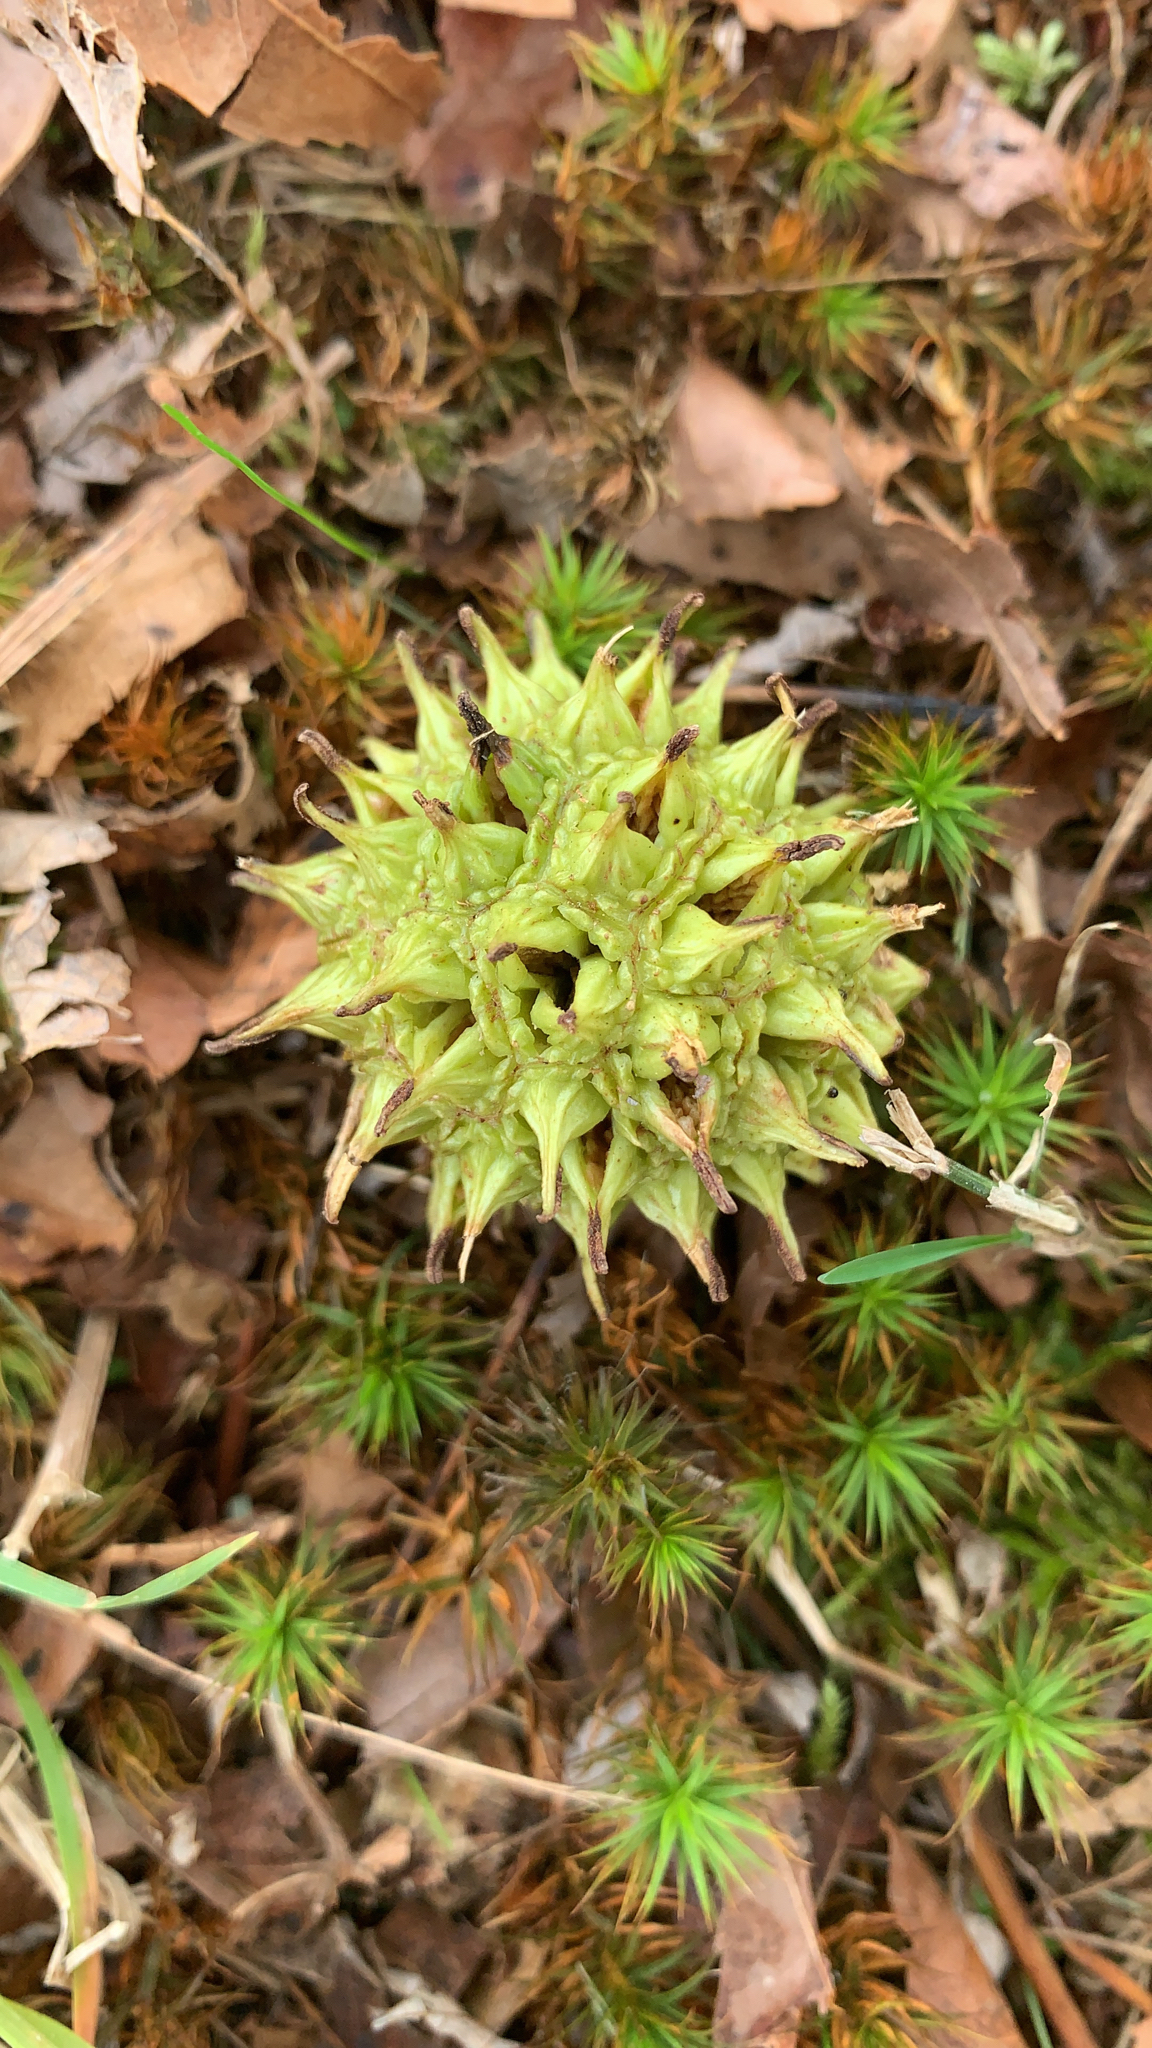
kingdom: Plantae
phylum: Tracheophyta
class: Magnoliopsida
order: Saxifragales
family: Altingiaceae
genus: Liquidambar
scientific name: Liquidambar styraciflua
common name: Sweet gum
